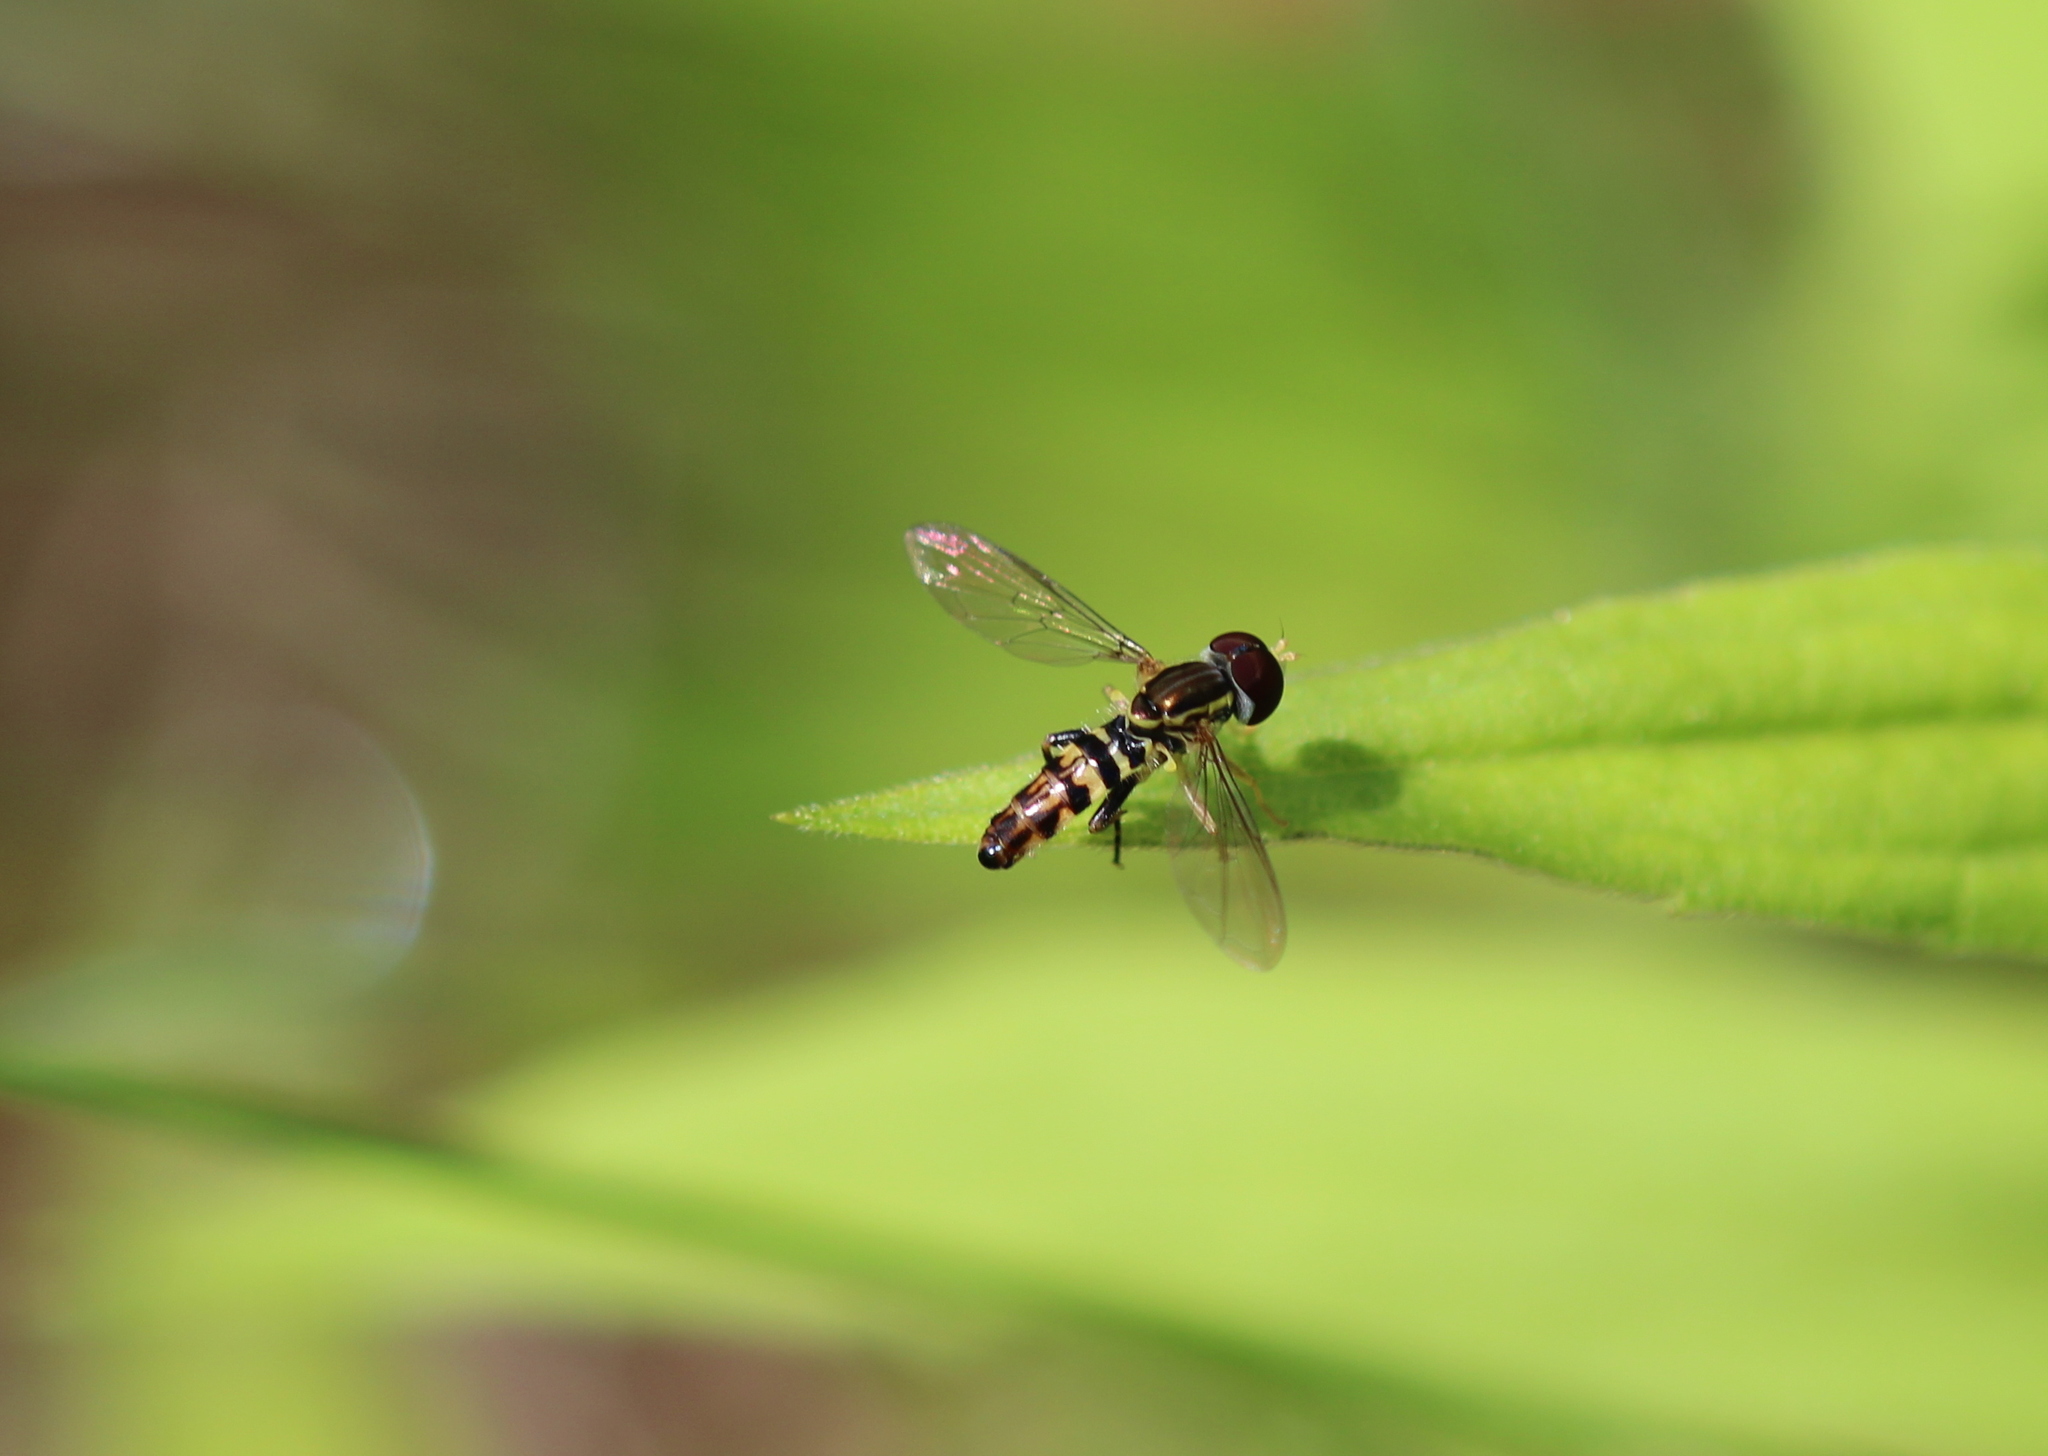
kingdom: Animalia
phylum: Arthropoda
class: Insecta
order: Diptera
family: Syrphidae
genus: Toxomerus
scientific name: Toxomerus geminatus
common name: Eastern calligrapher
